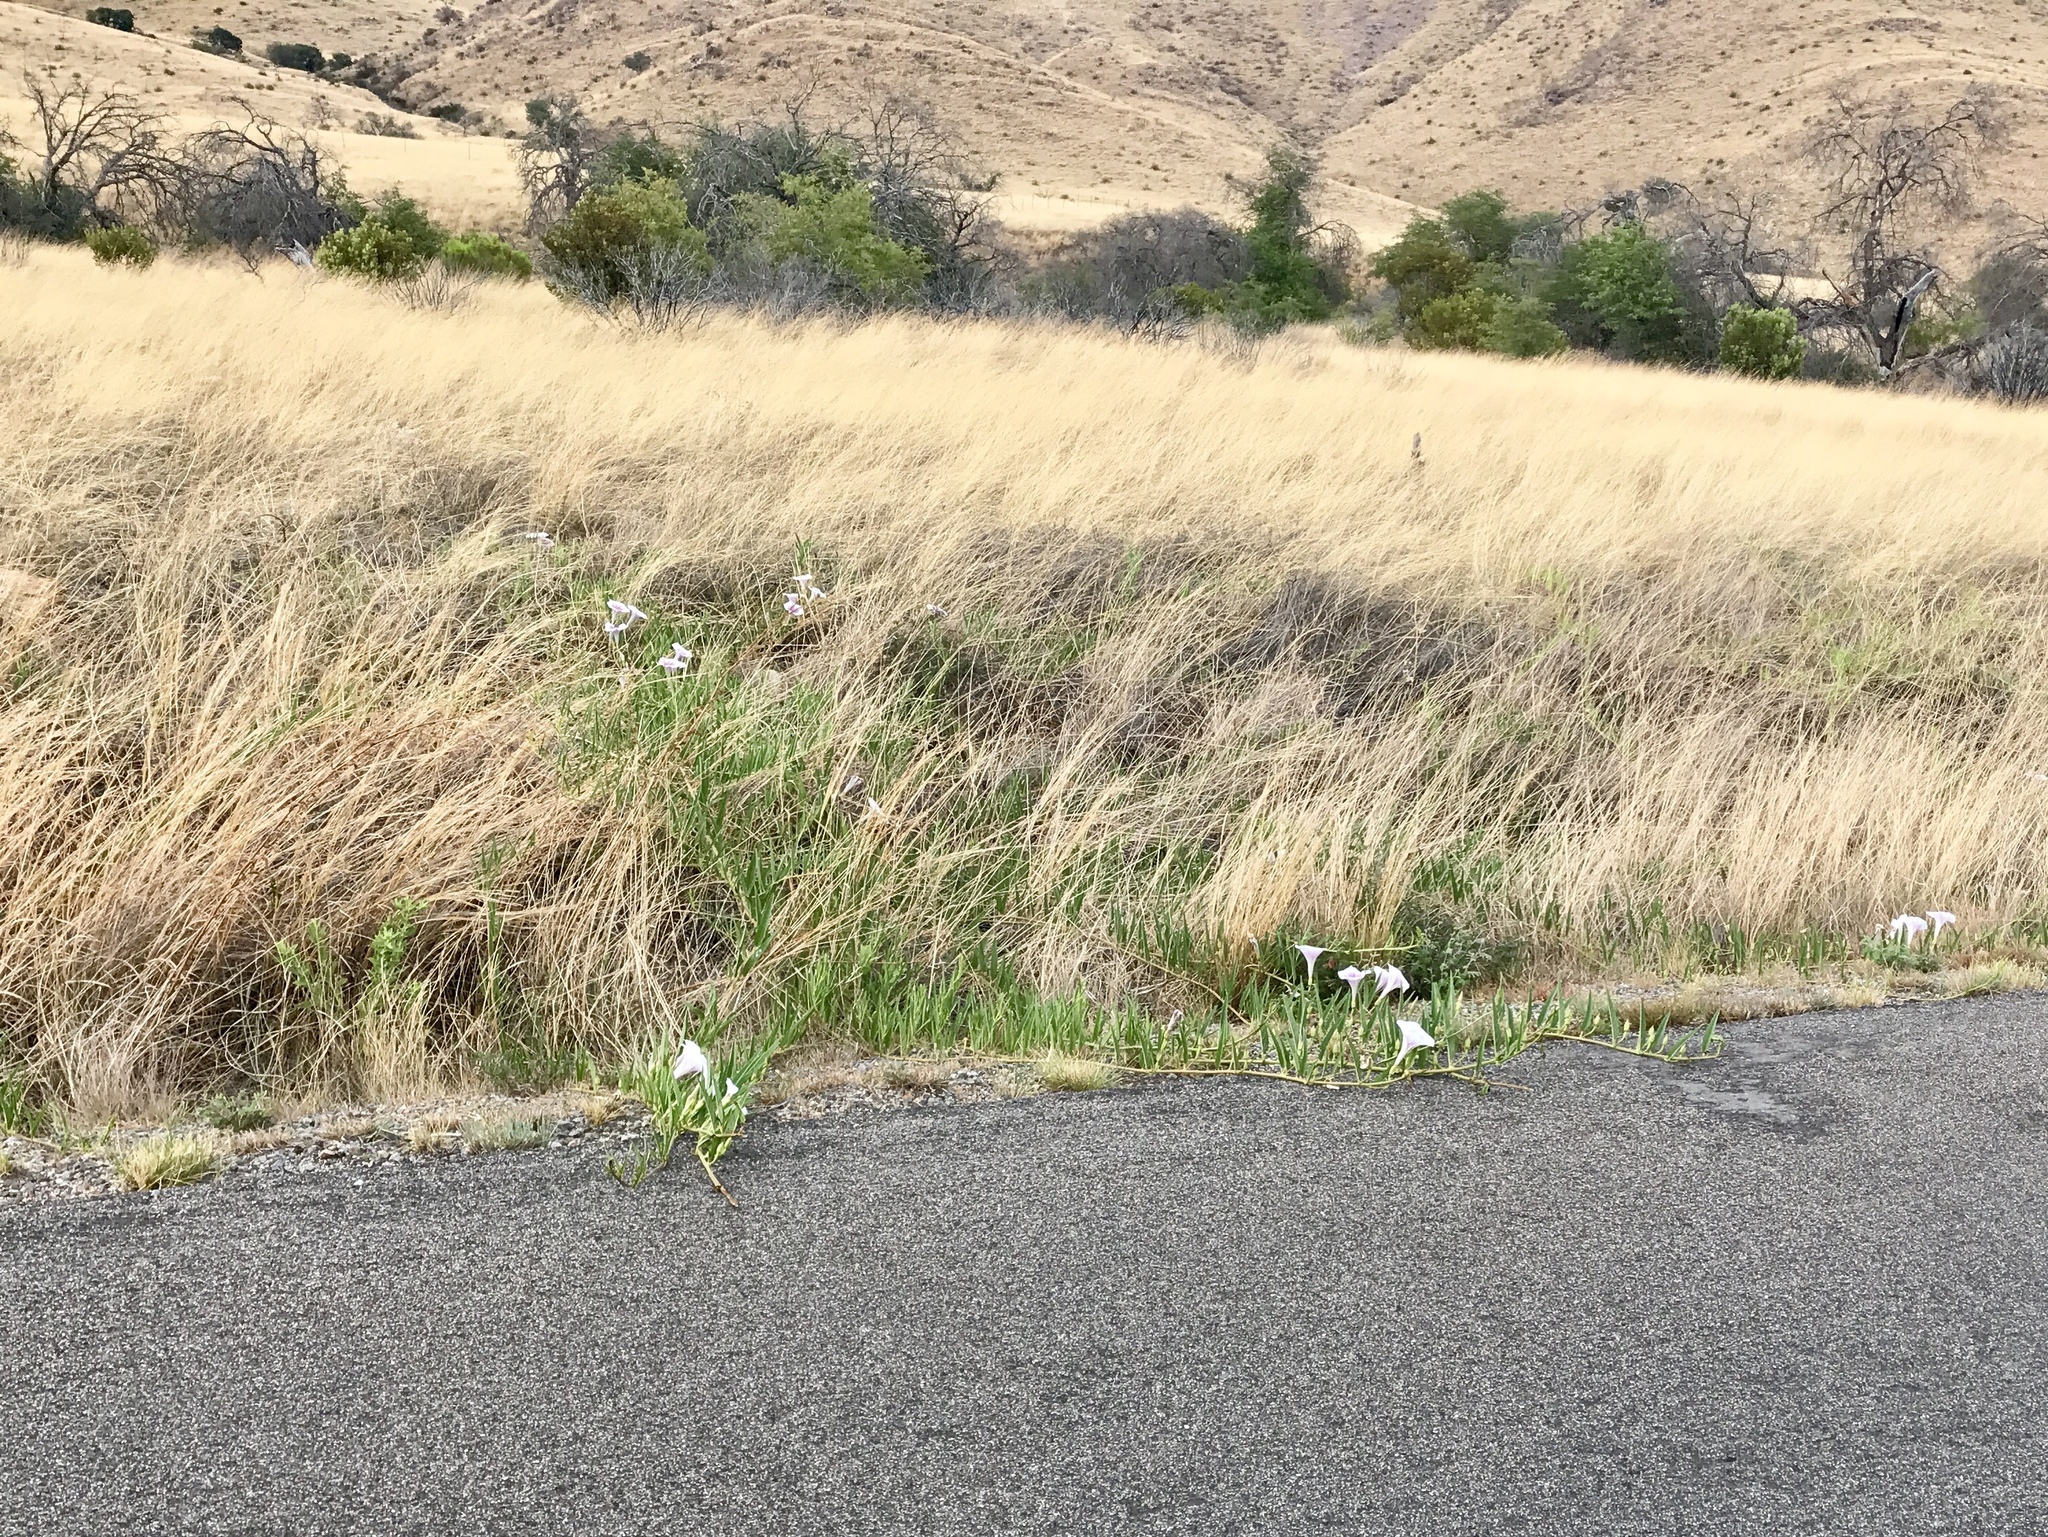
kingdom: Plantae
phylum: Tracheophyta
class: Magnoliopsida
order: Solanales
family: Convolvulaceae
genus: Ipomoea
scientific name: Ipomoea longifolia
